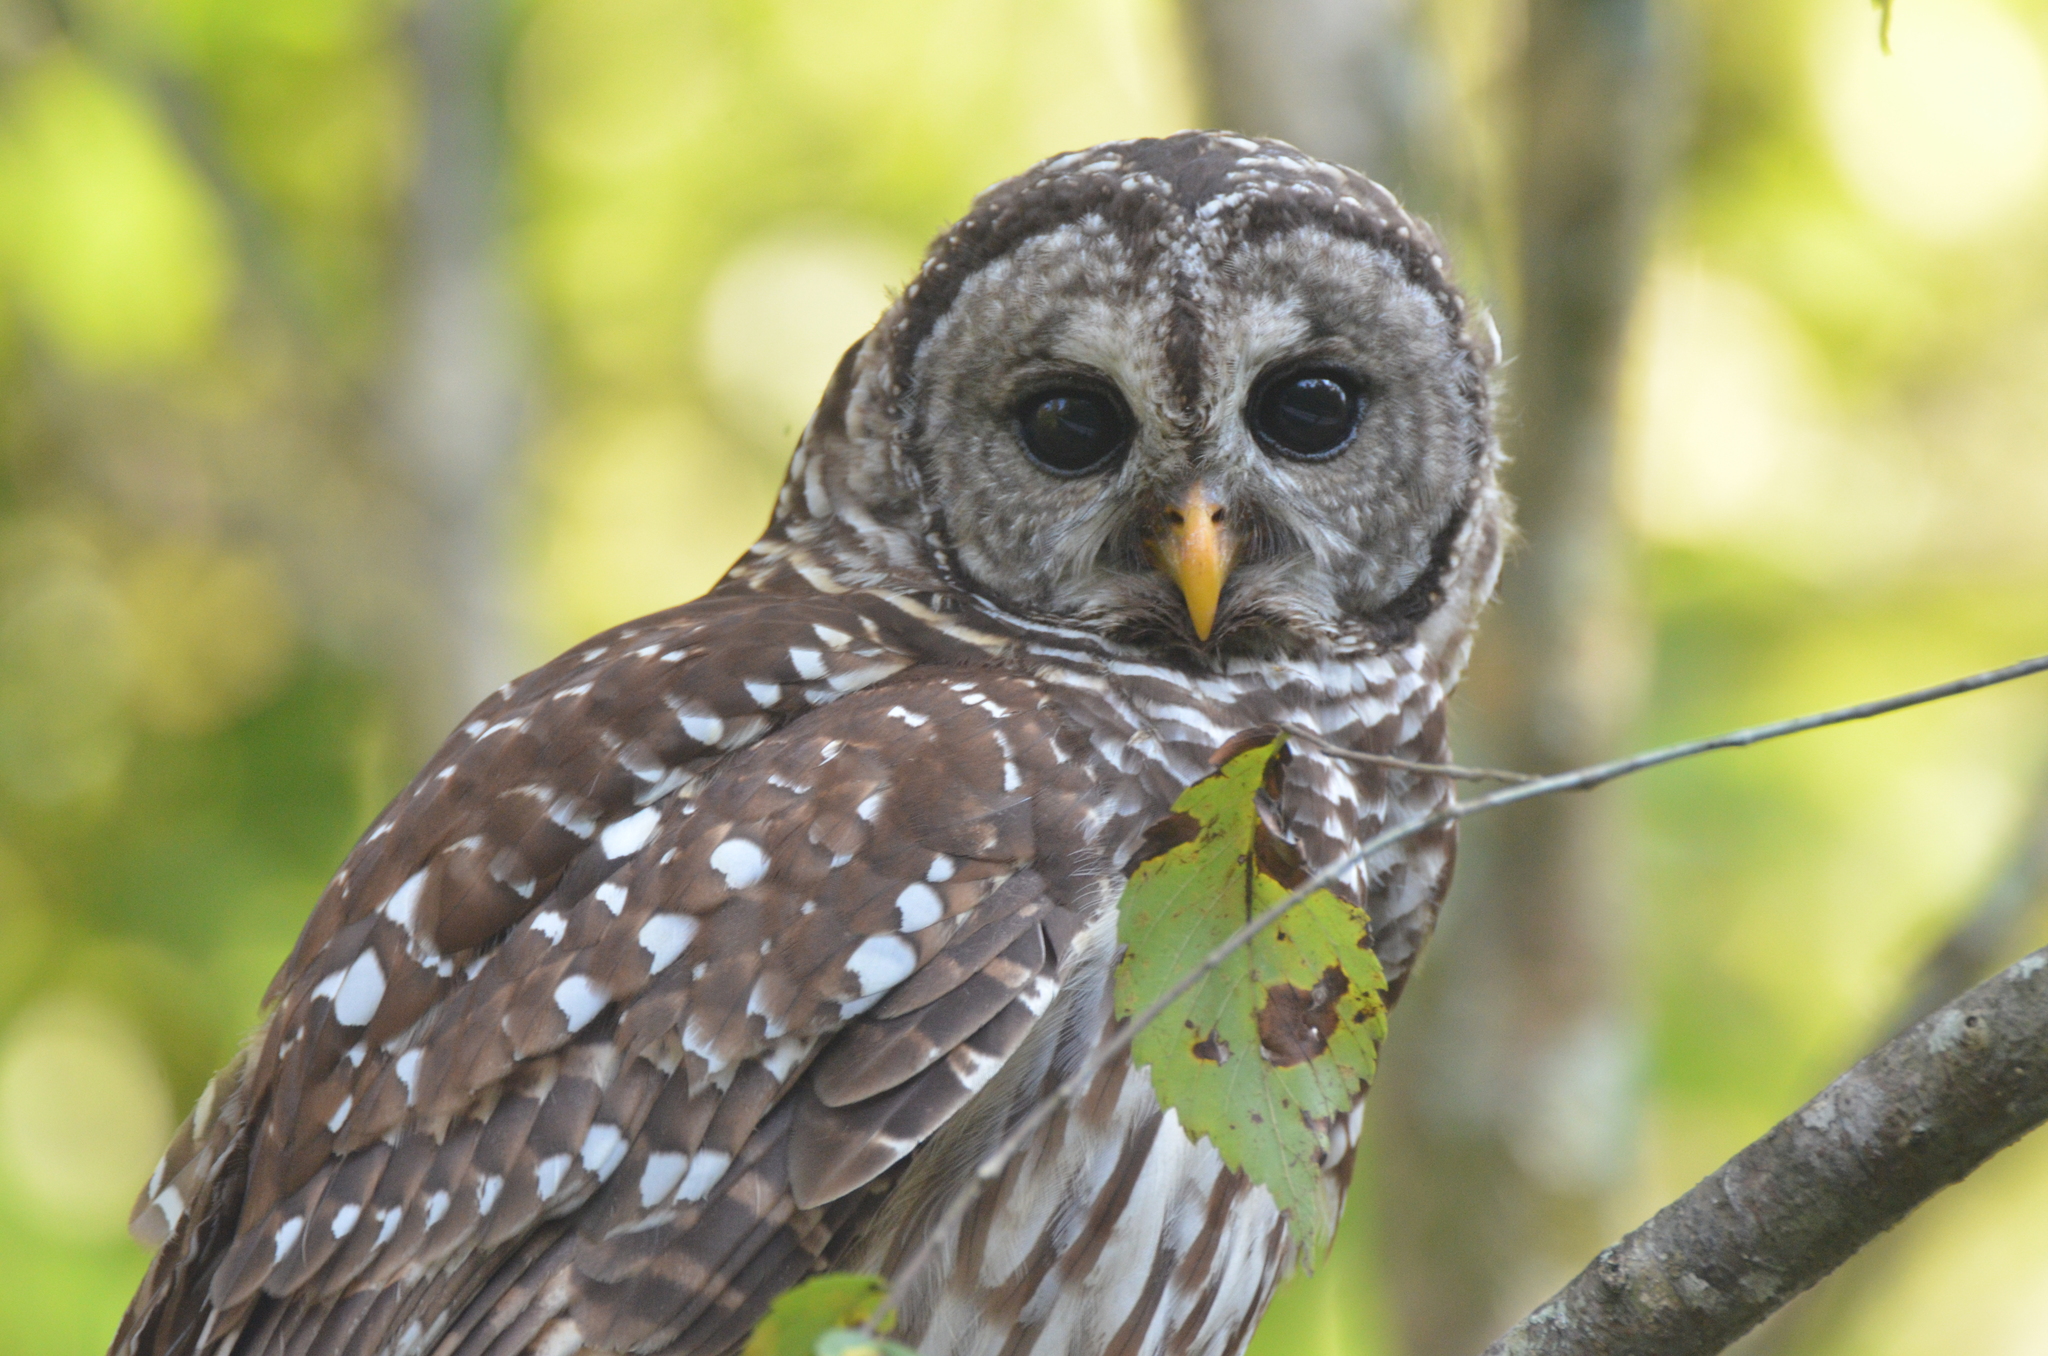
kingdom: Animalia
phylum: Chordata
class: Aves
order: Strigiformes
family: Strigidae
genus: Strix
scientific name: Strix varia
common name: Barred owl
